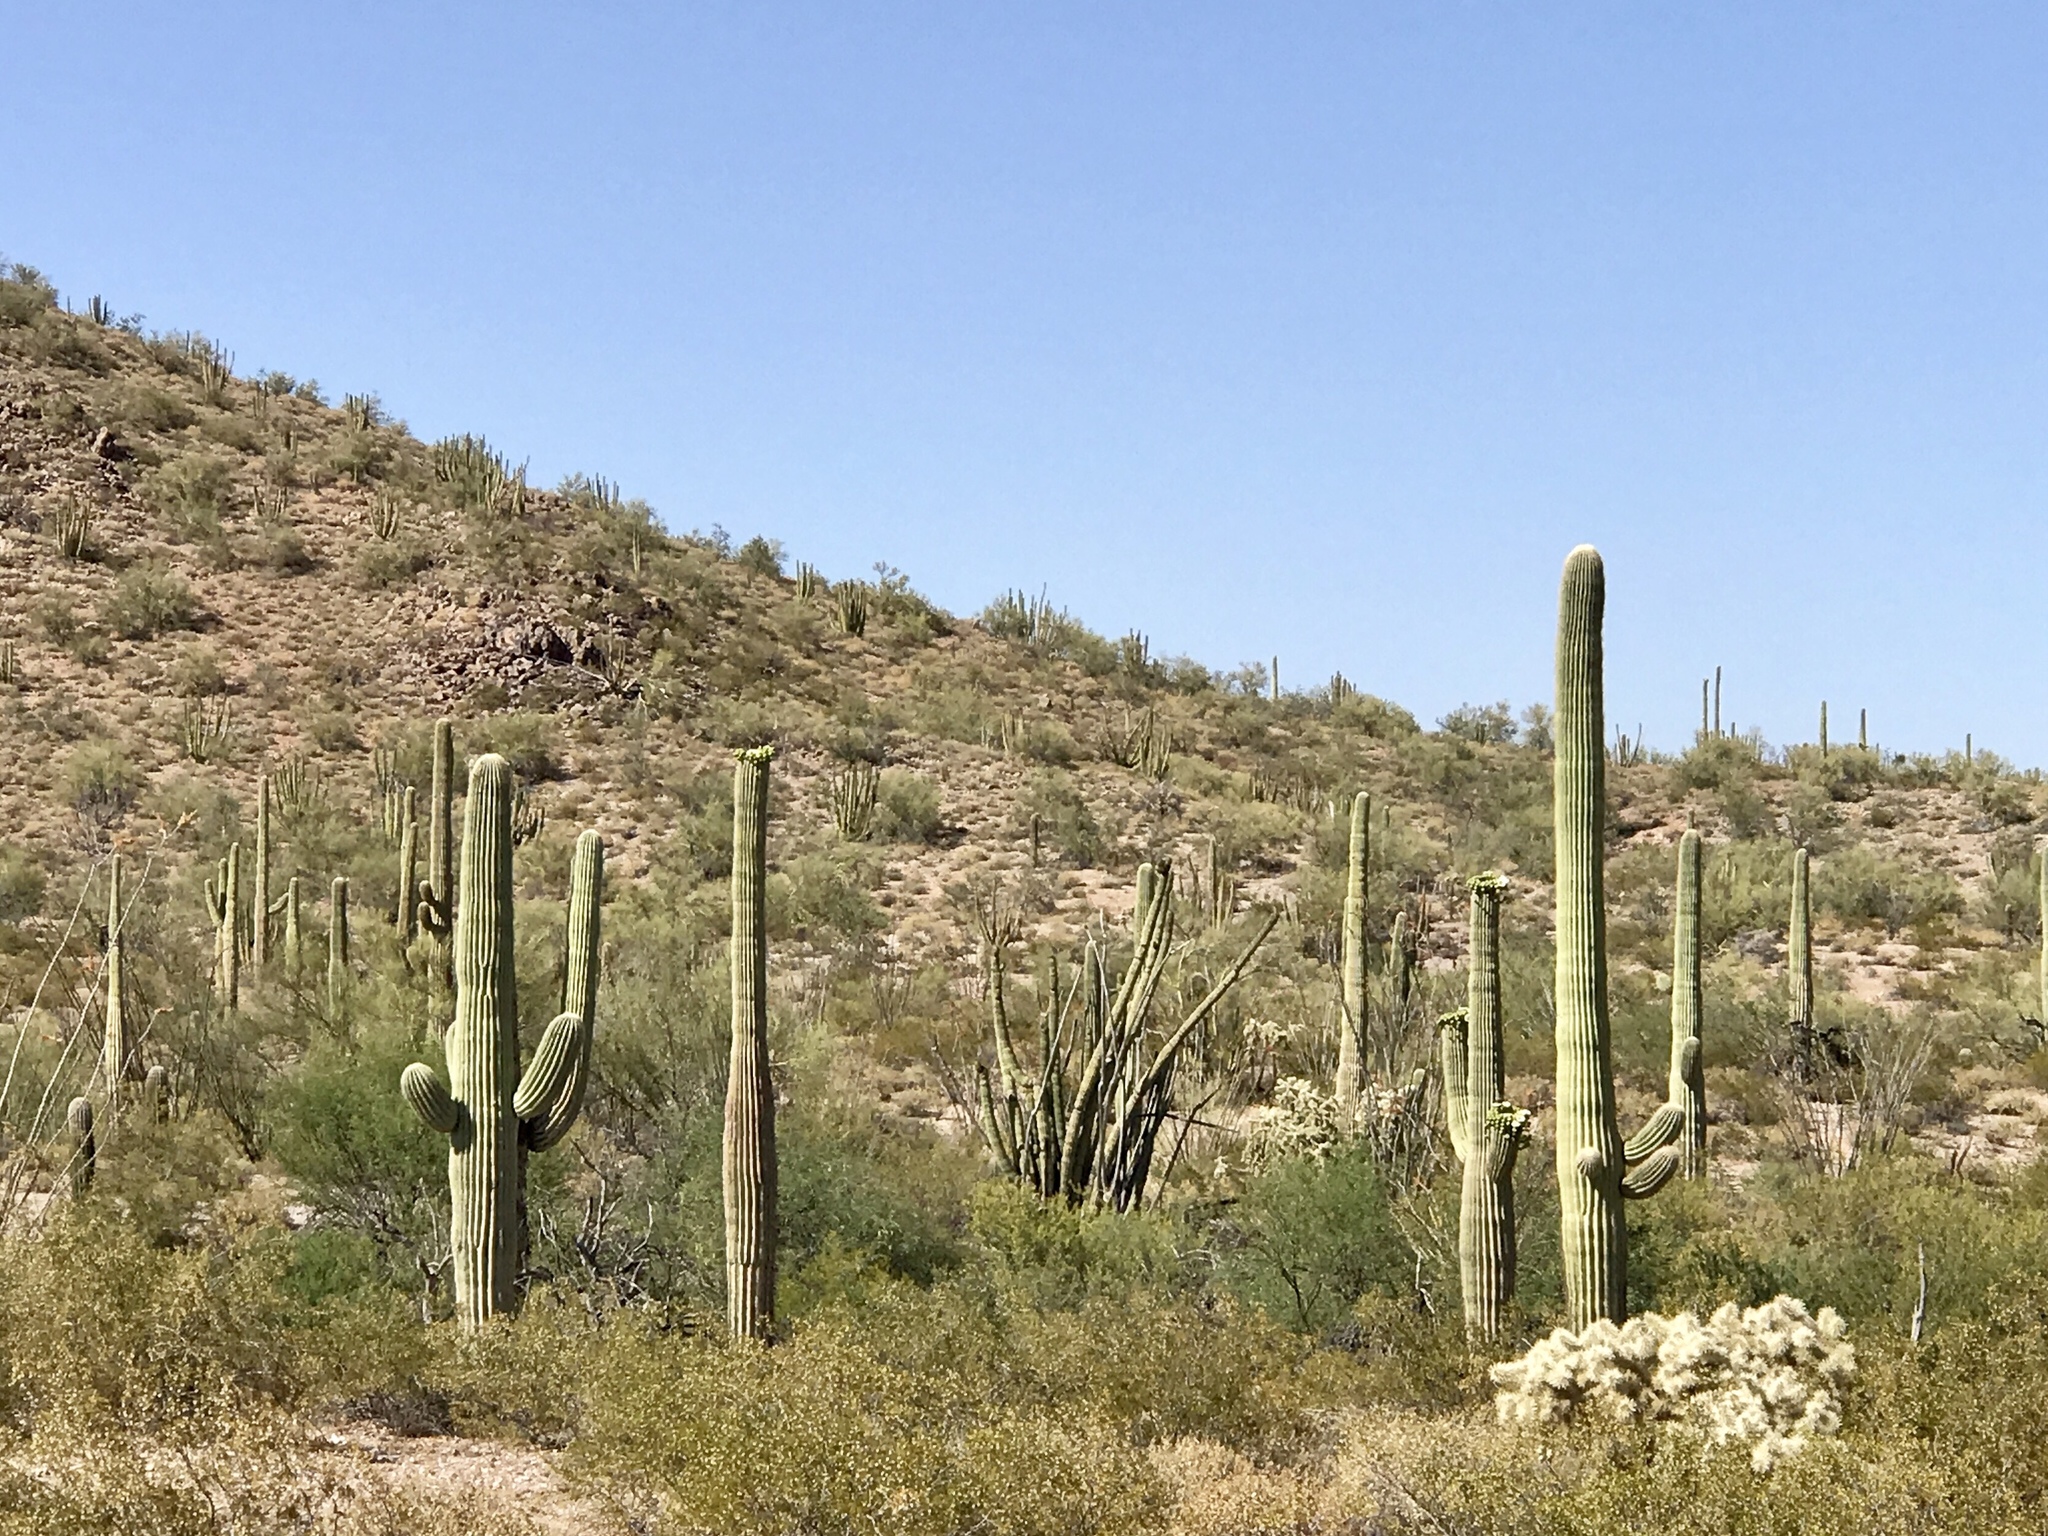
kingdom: Plantae
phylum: Tracheophyta
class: Magnoliopsida
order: Caryophyllales
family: Cactaceae
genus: Carnegiea
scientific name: Carnegiea gigantea
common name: Saguaro
